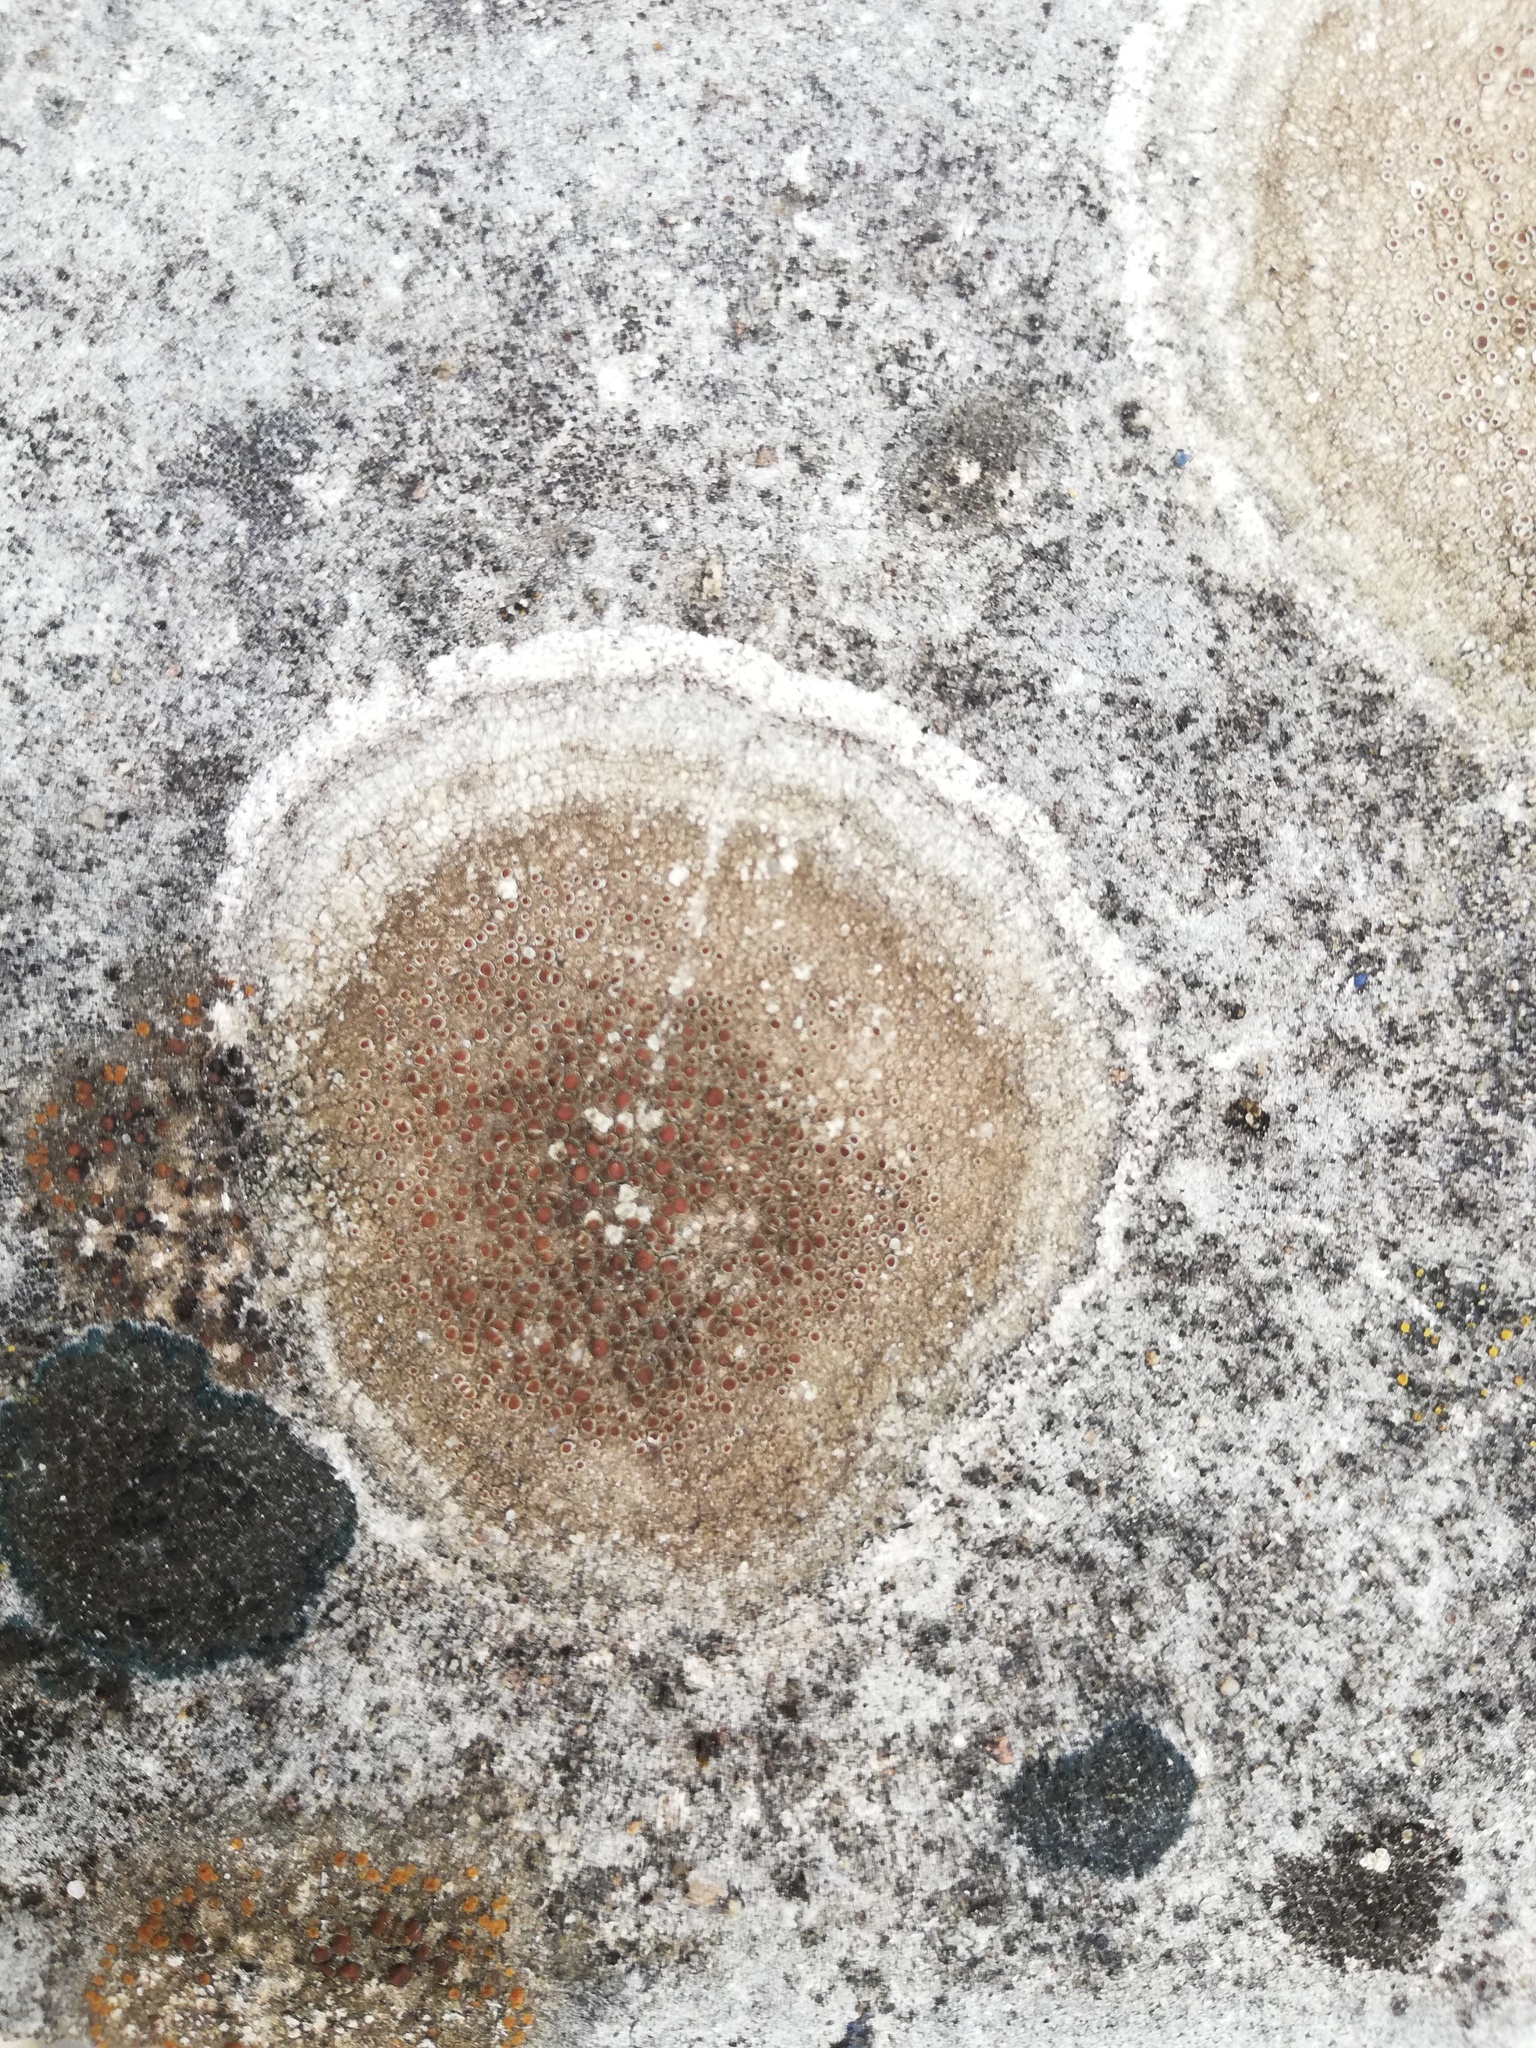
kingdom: Fungi
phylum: Ascomycota
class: Lecanoromycetes
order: Lecanorales
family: Lecanoraceae
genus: Lecanora
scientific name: Lecanora campestris
